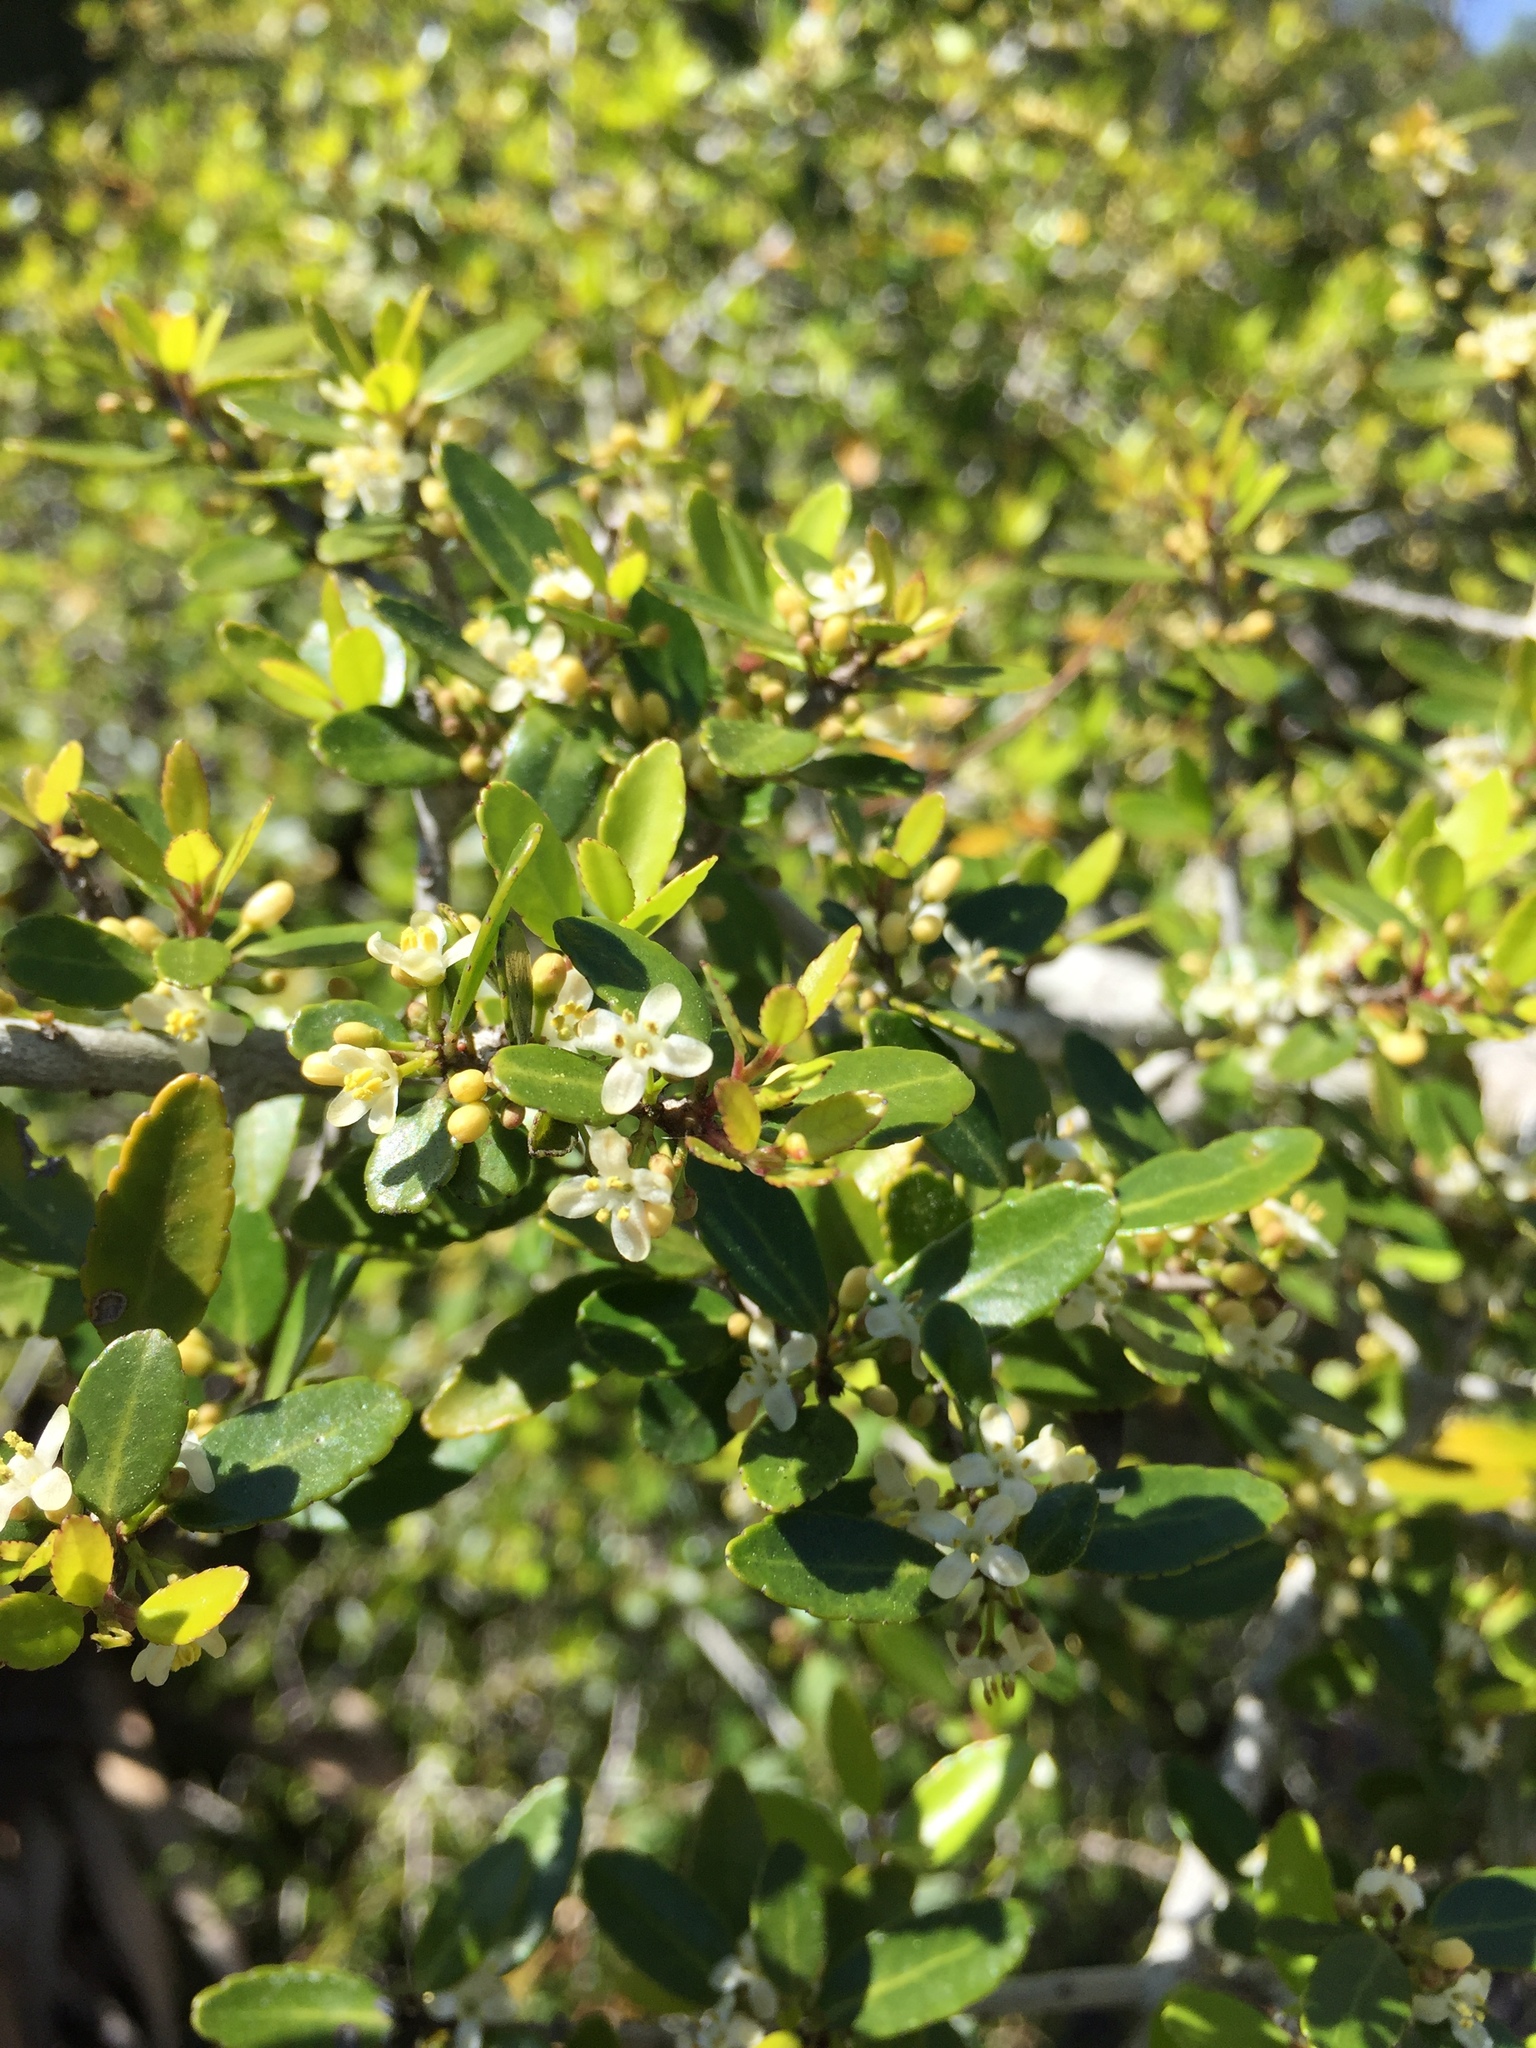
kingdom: Plantae
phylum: Tracheophyta
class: Magnoliopsida
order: Aquifoliales
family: Aquifoliaceae
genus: Ilex
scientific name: Ilex vomitoria
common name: Yaupon holly
